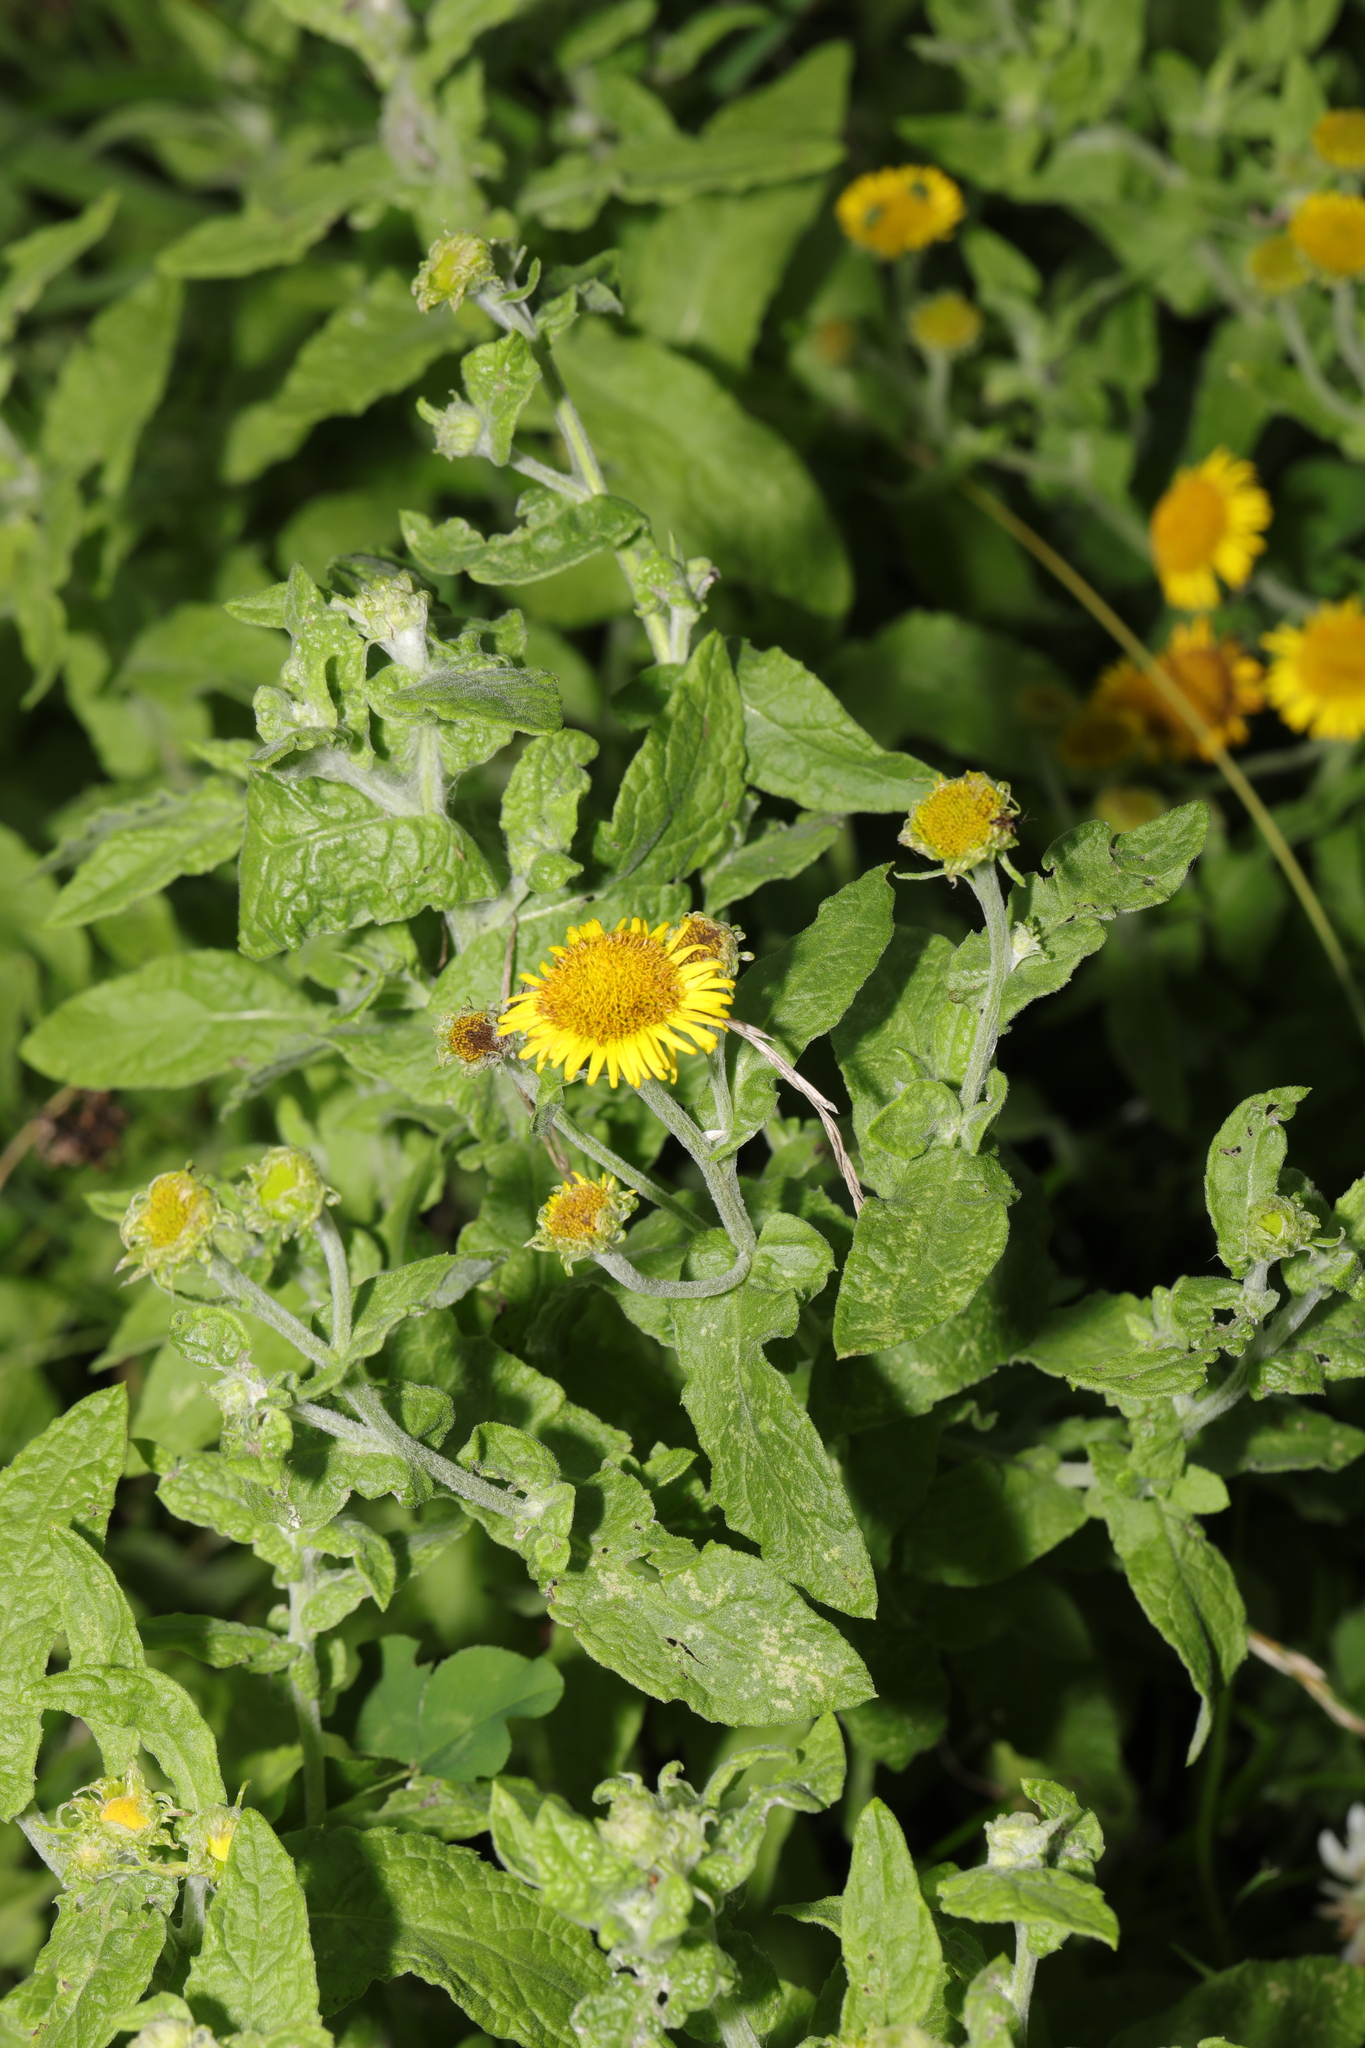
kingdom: Plantae
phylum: Tracheophyta
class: Magnoliopsida
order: Asterales
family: Asteraceae
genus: Pulicaria
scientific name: Pulicaria dysenterica
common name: Common fleabane
